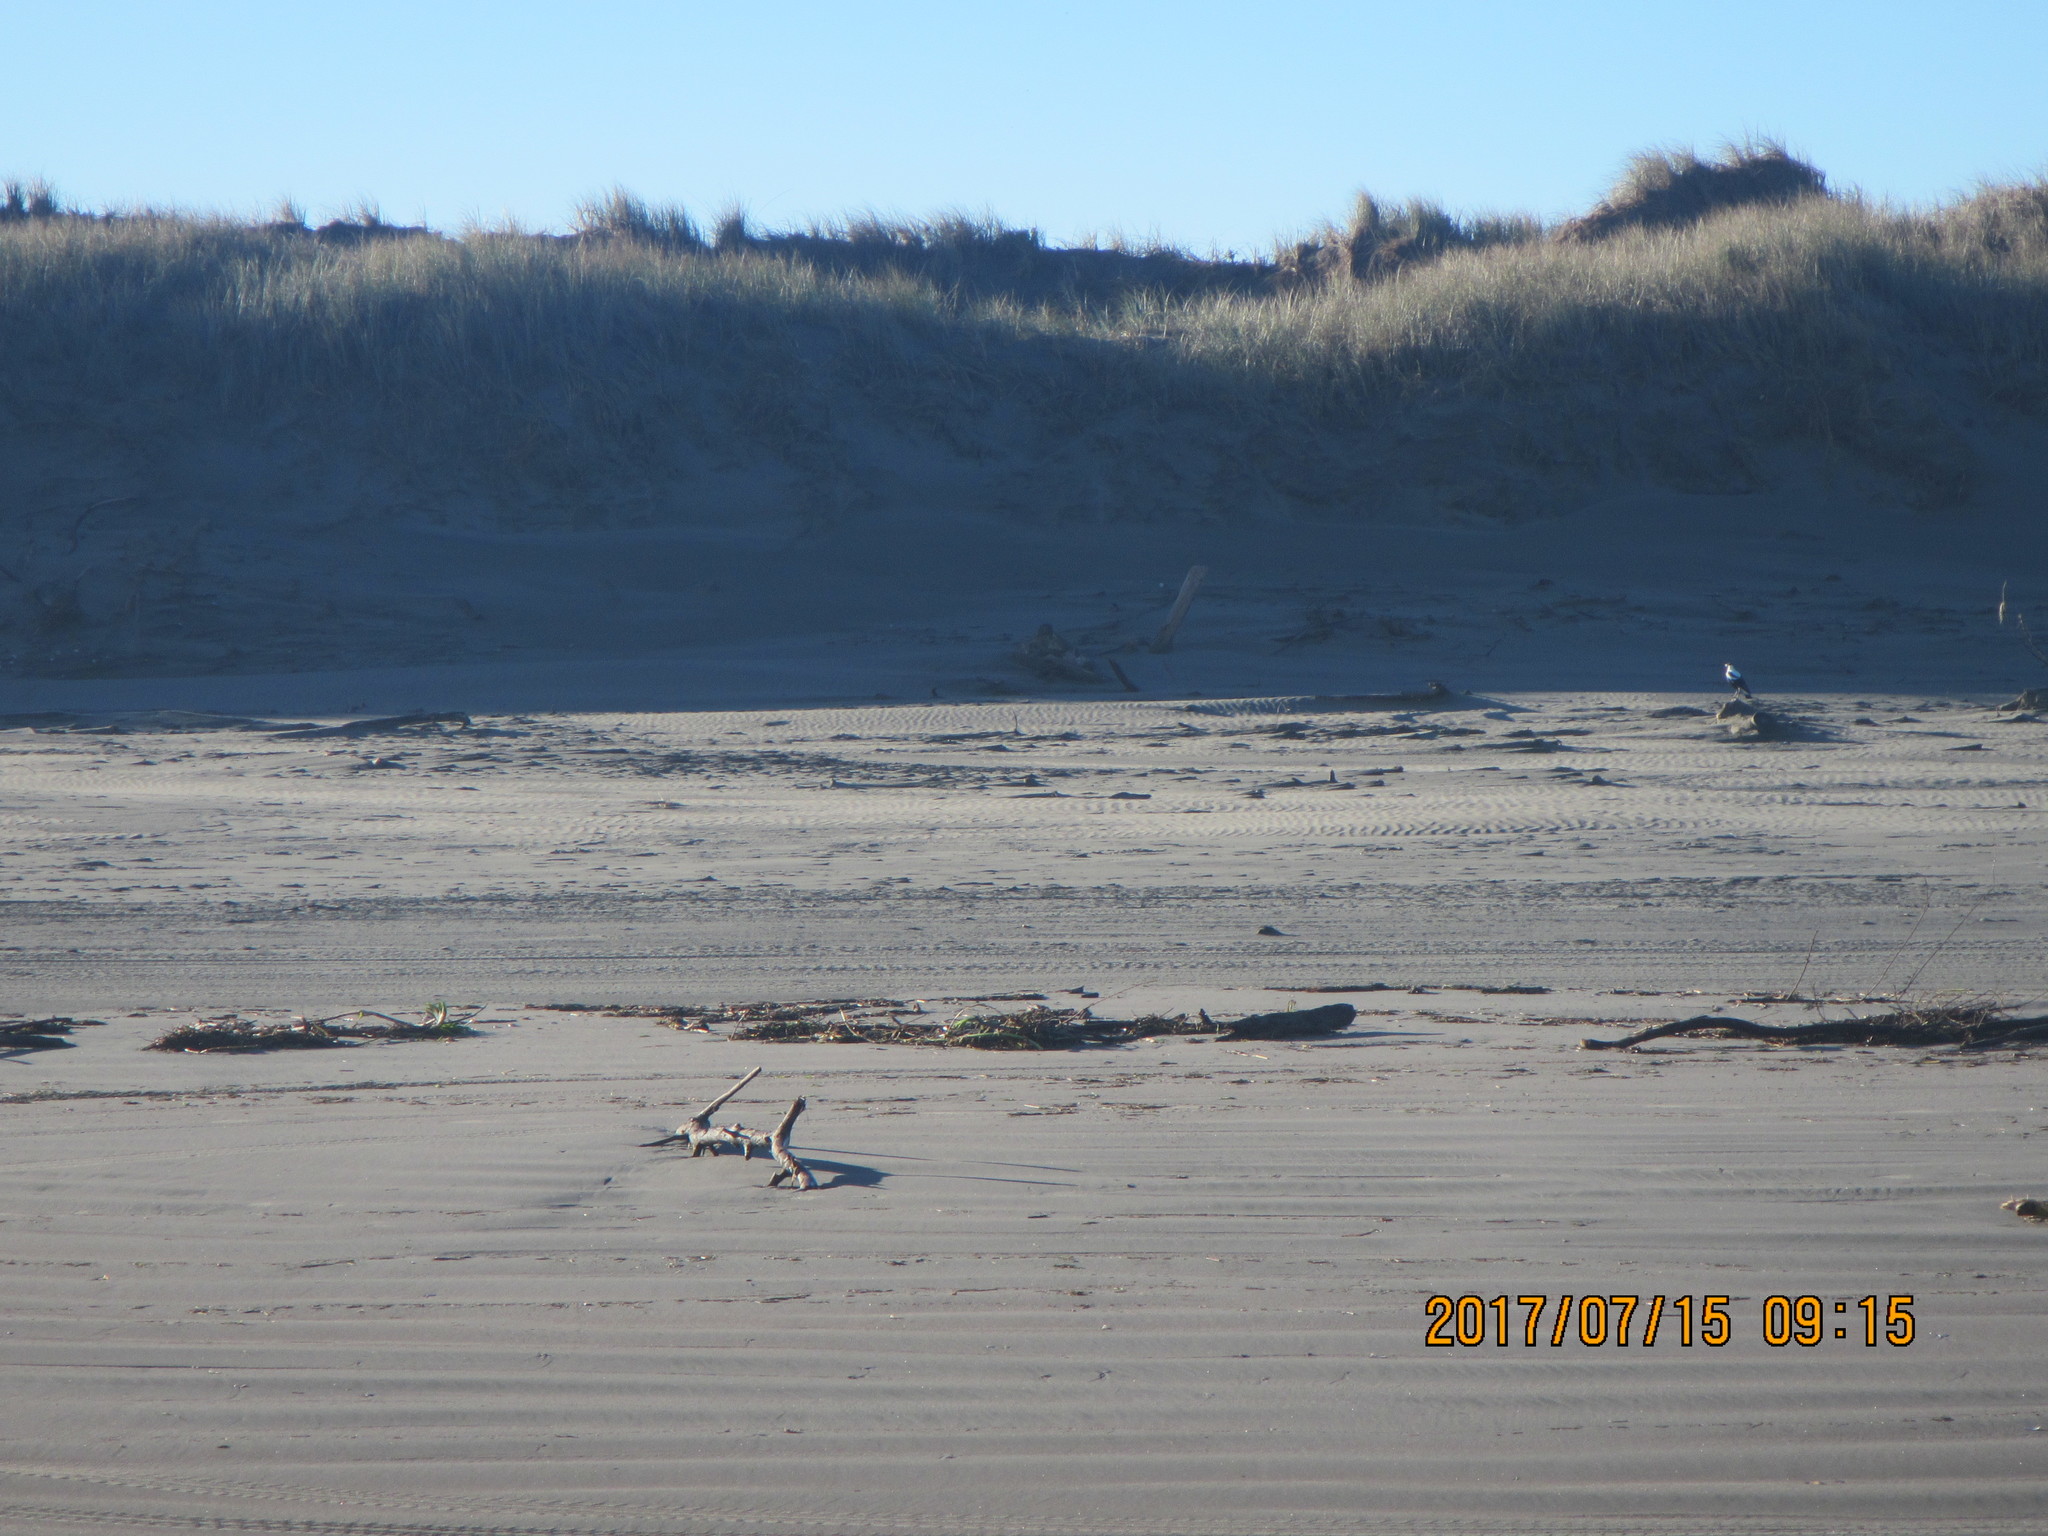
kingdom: Animalia
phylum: Chordata
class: Aves
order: Passeriformes
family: Cracticidae
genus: Gymnorhina
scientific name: Gymnorhina tibicen
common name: Australian magpie
